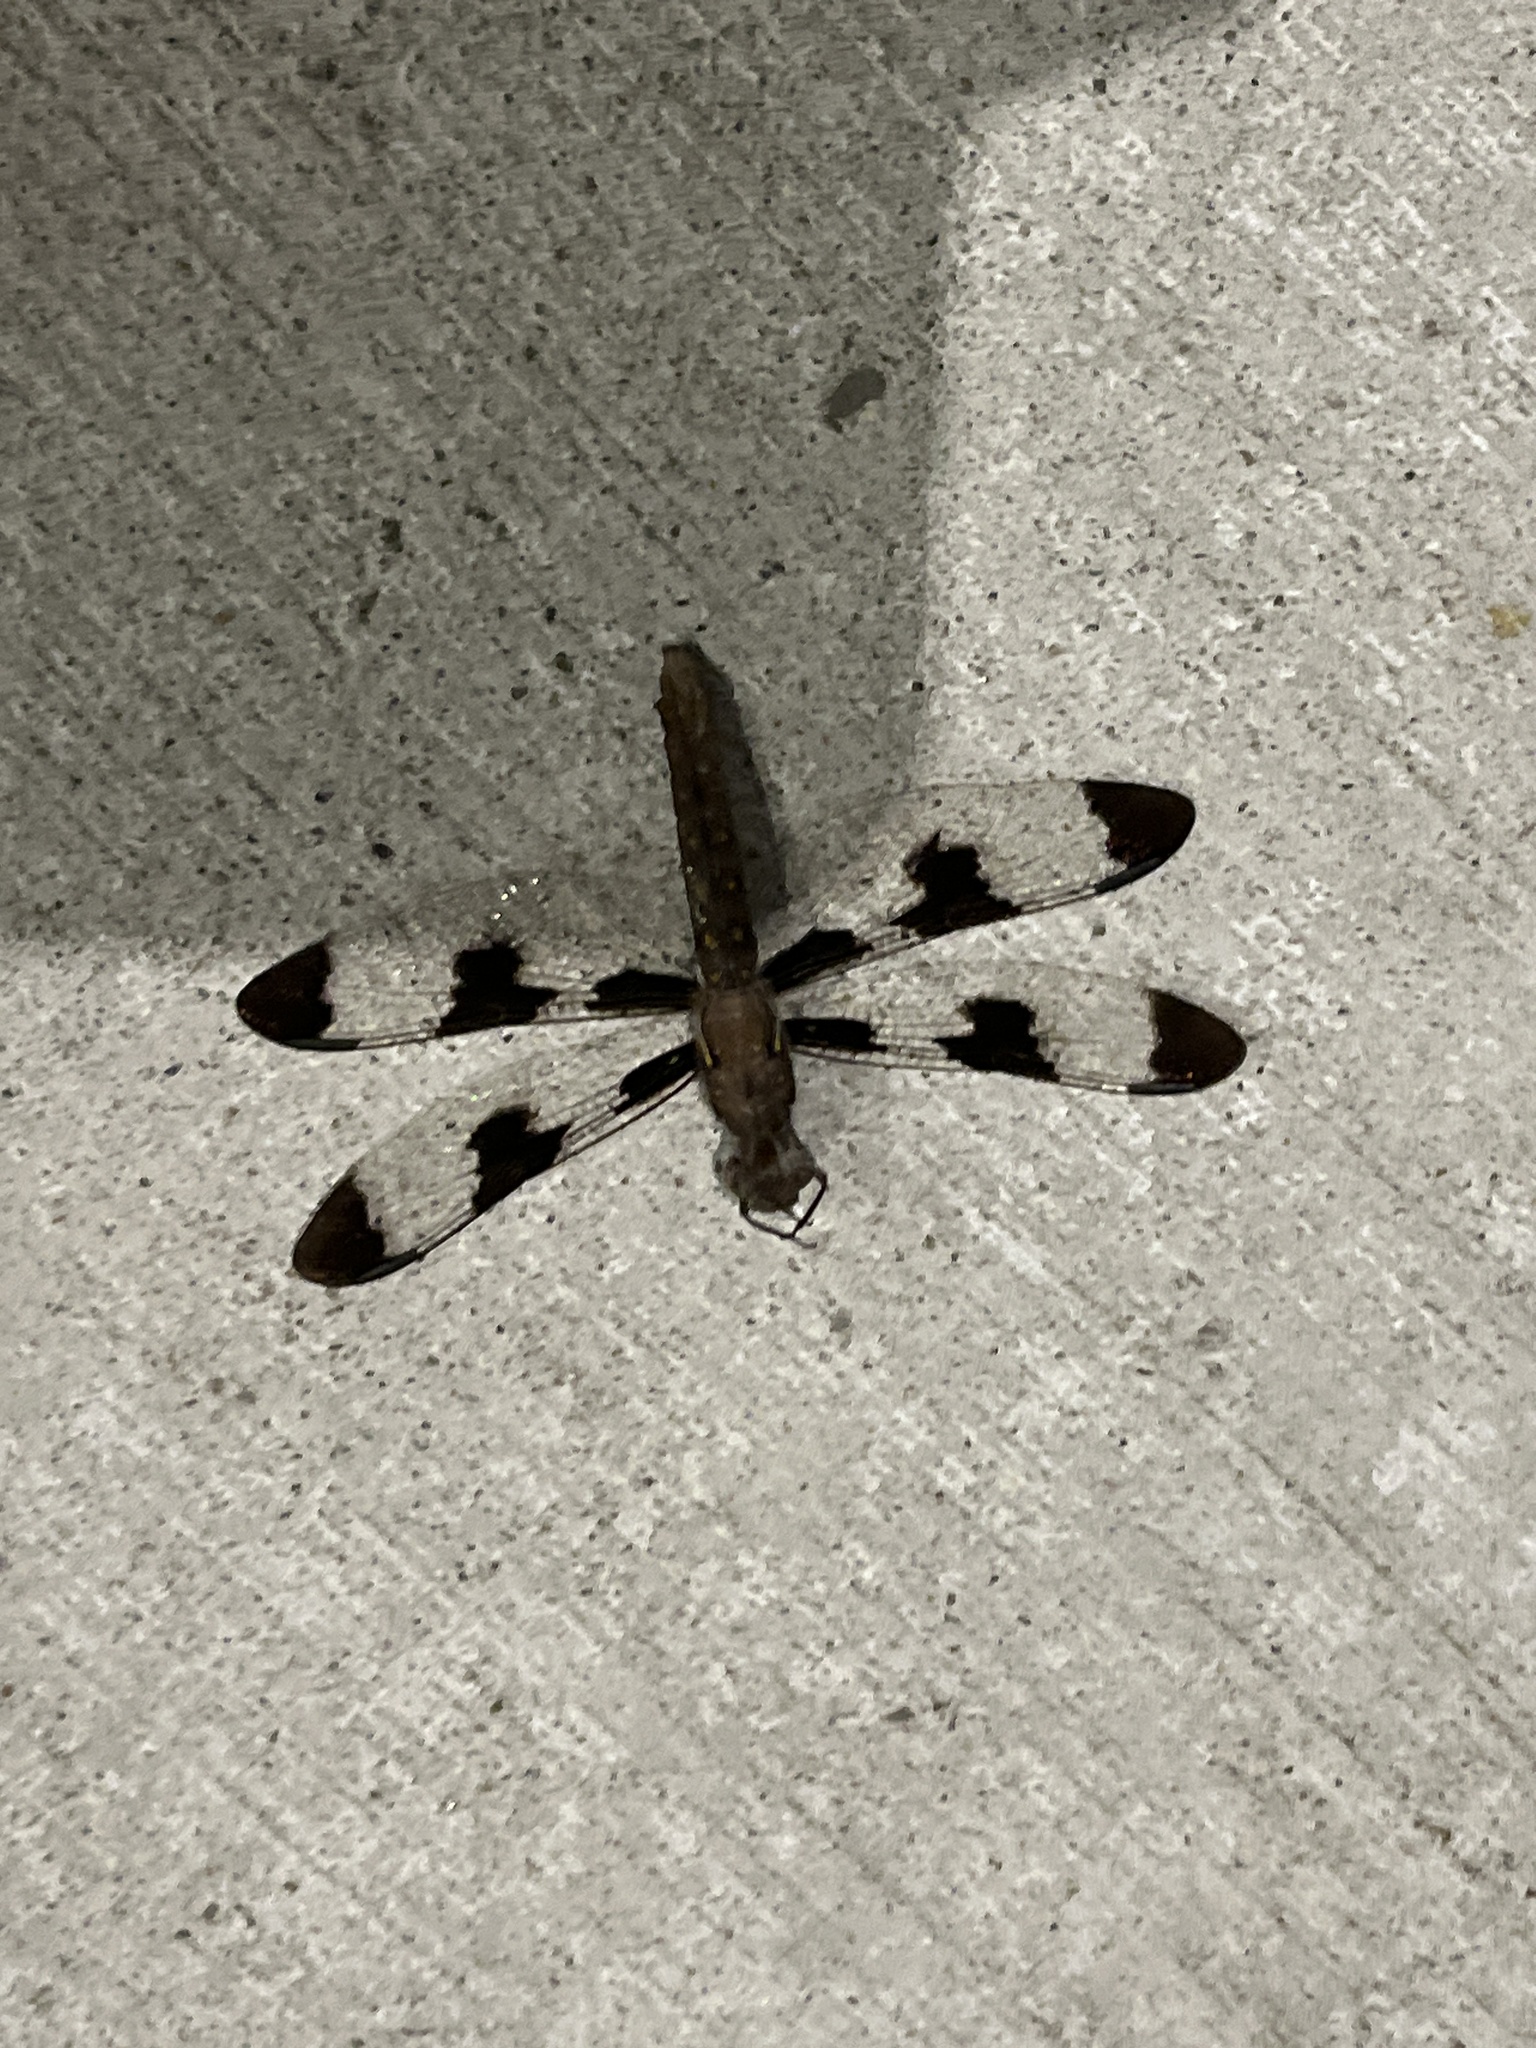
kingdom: Animalia
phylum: Arthropoda
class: Insecta
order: Odonata
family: Libellulidae
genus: Plathemis
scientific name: Plathemis lydia
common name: Common whitetail
